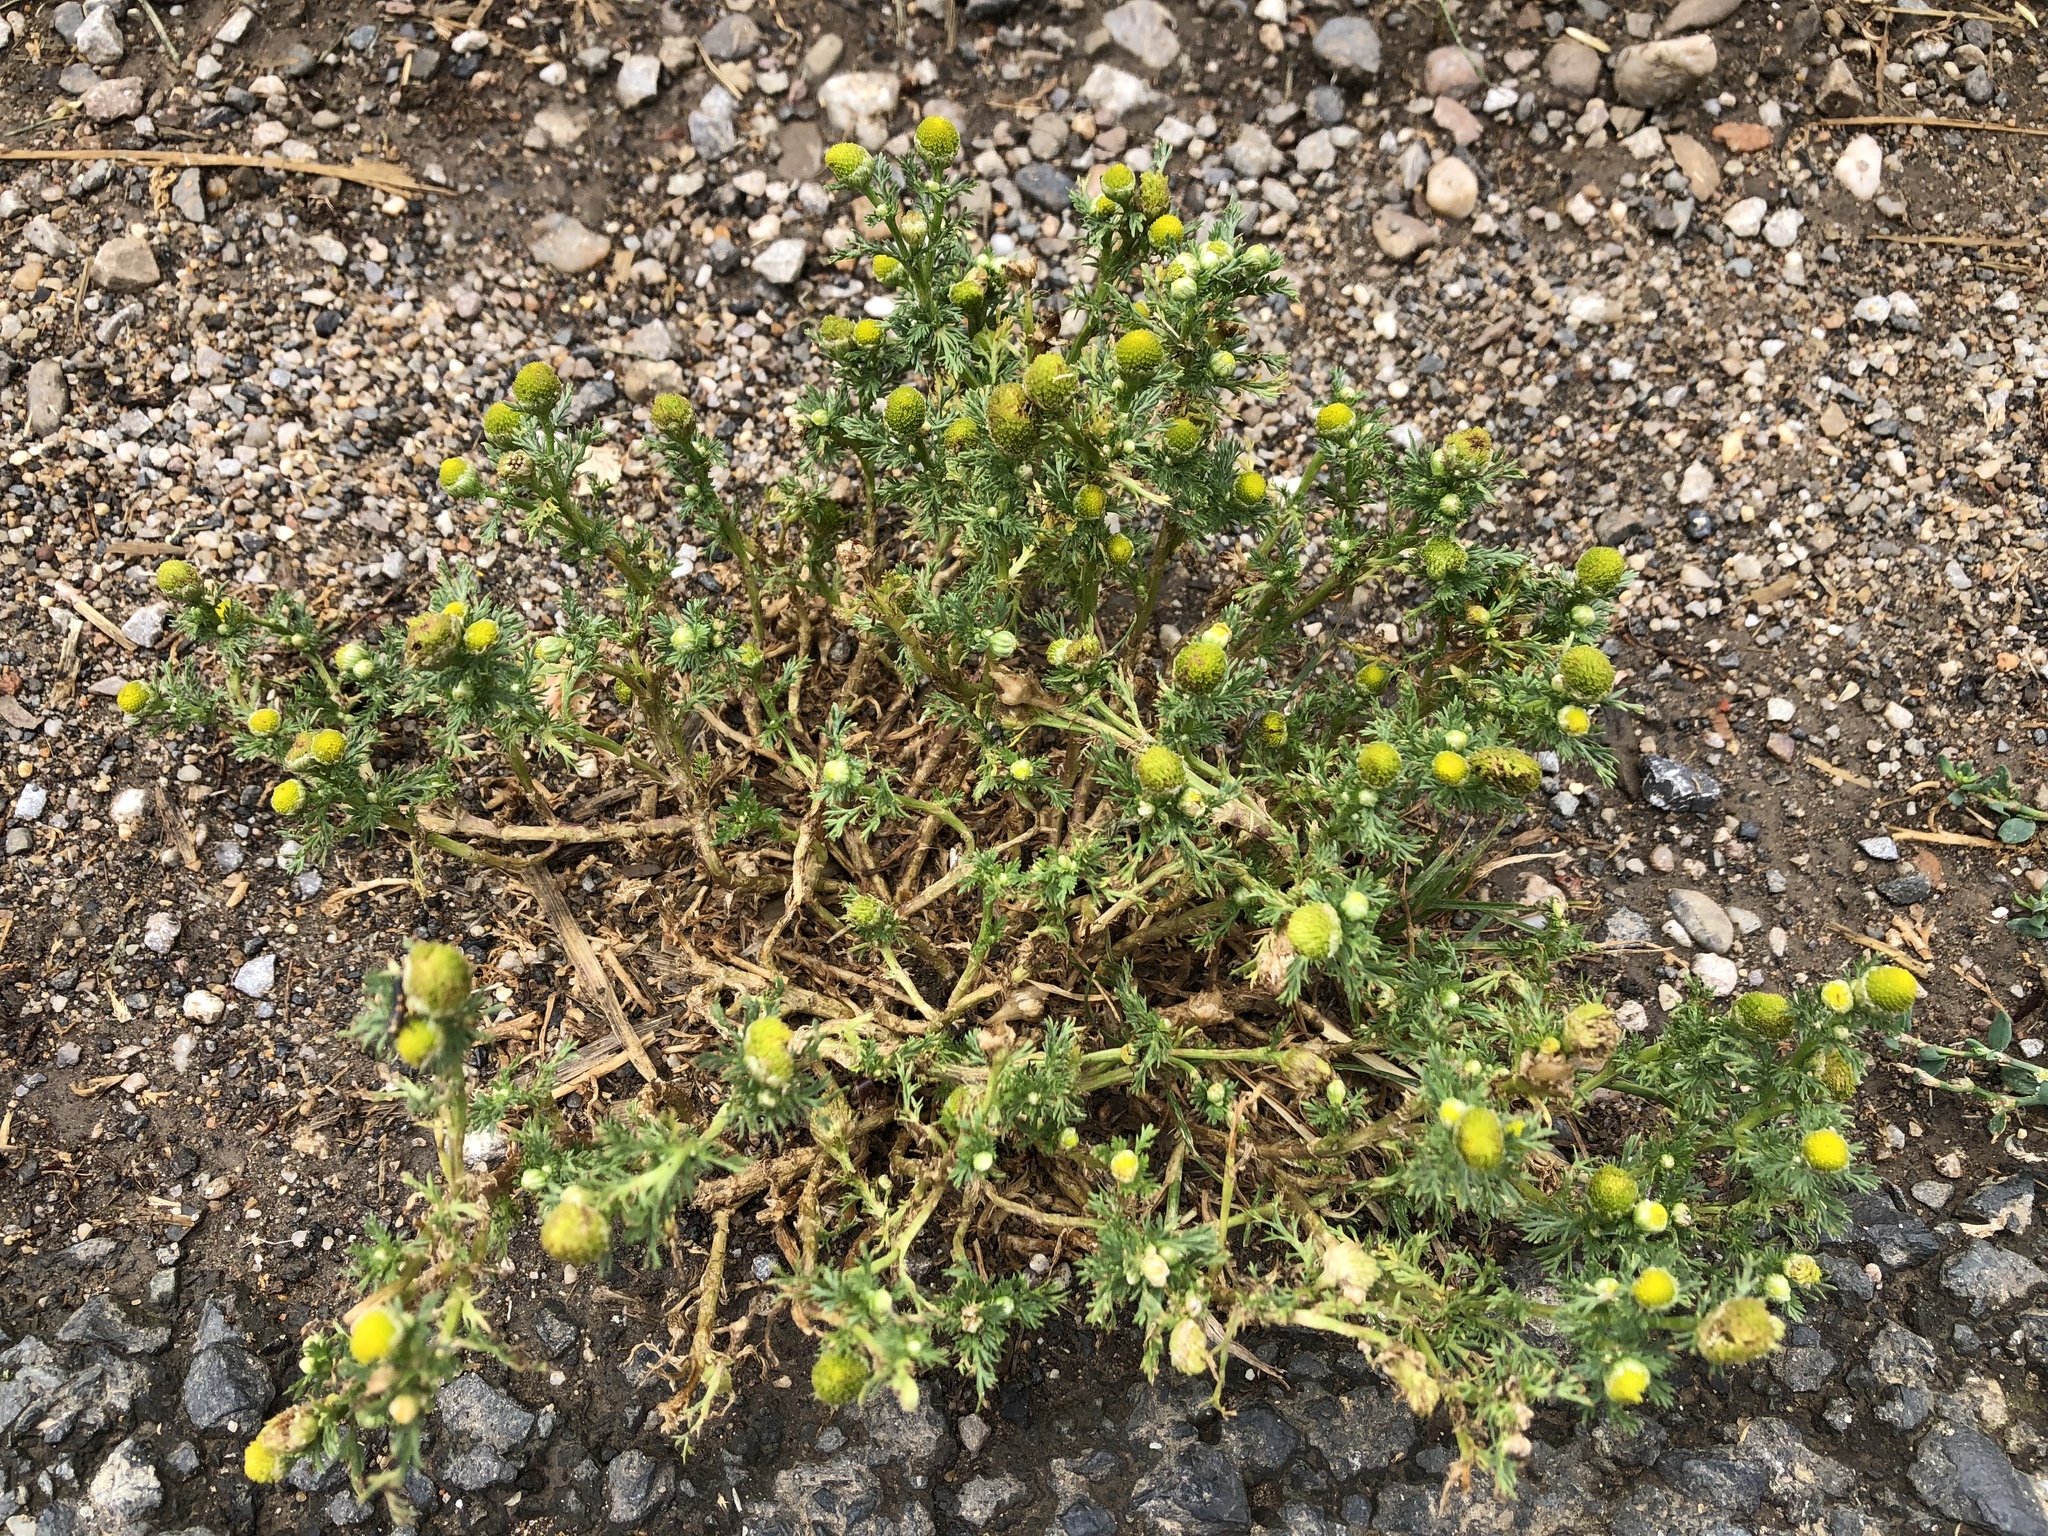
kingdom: Plantae
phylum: Tracheophyta
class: Magnoliopsida
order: Asterales
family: Asteraceae
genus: Matricaria
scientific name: Matricaria discoidea
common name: Disc mayweed
